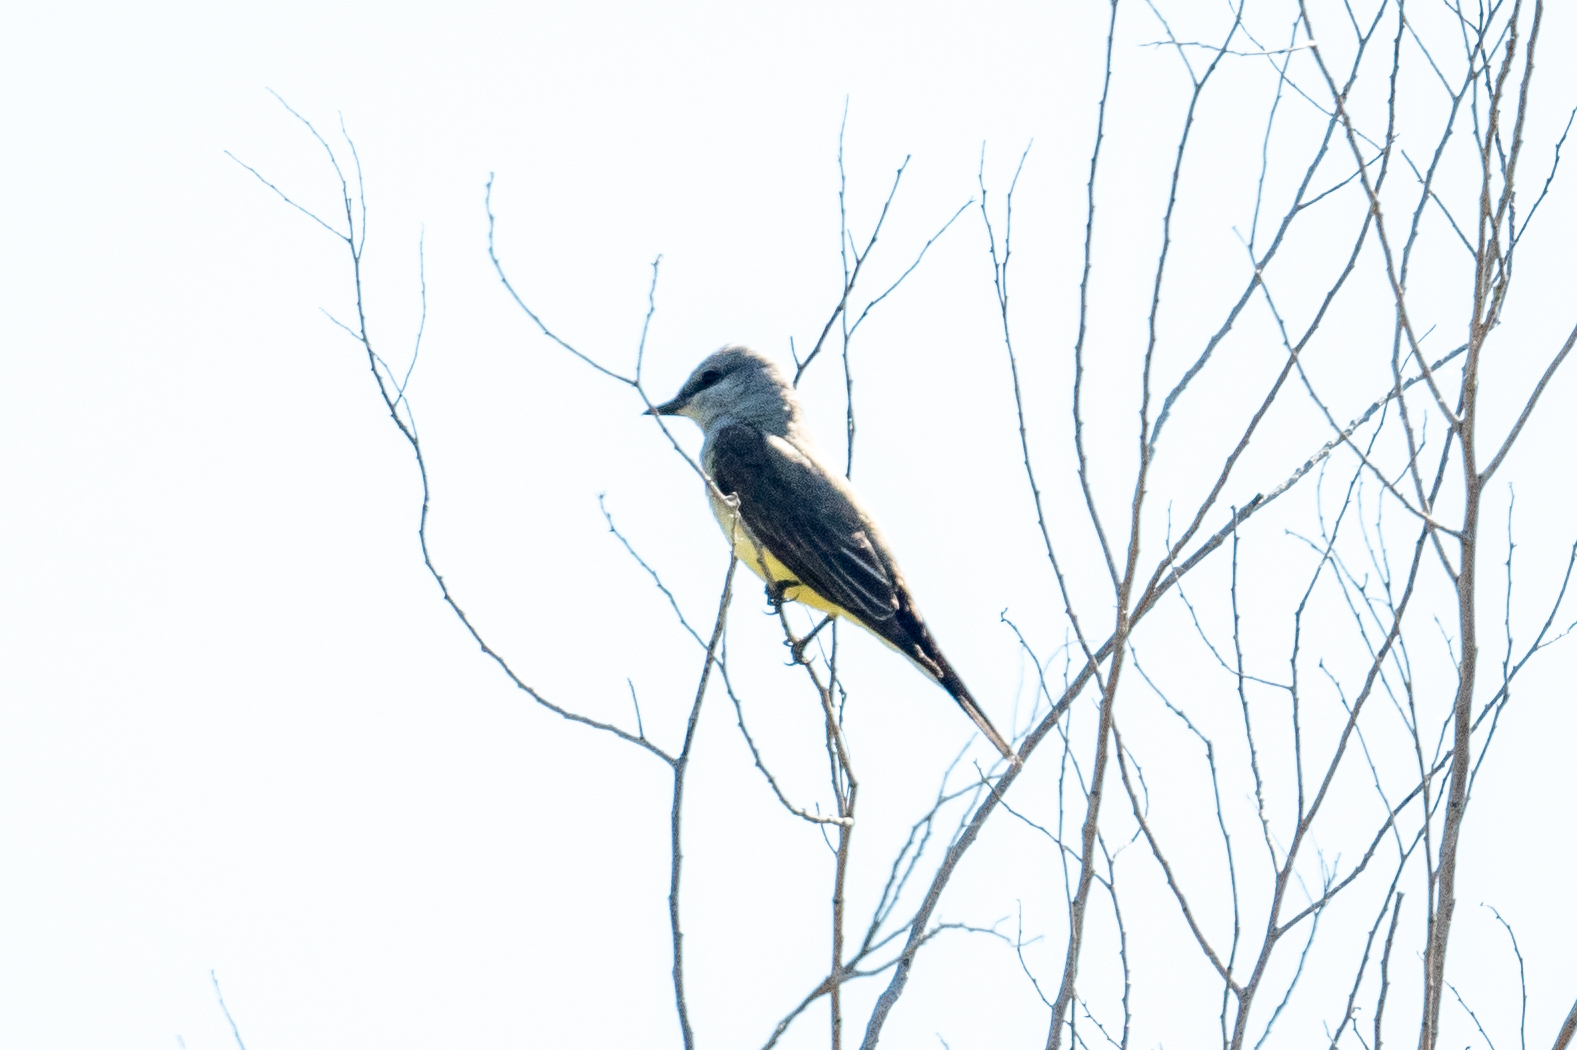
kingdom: Animalia
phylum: Chordata
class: Aves
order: Passeriformes
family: Tyrannidae
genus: Tyrannus
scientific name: Tyrannus verticalis
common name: Western kingbird
